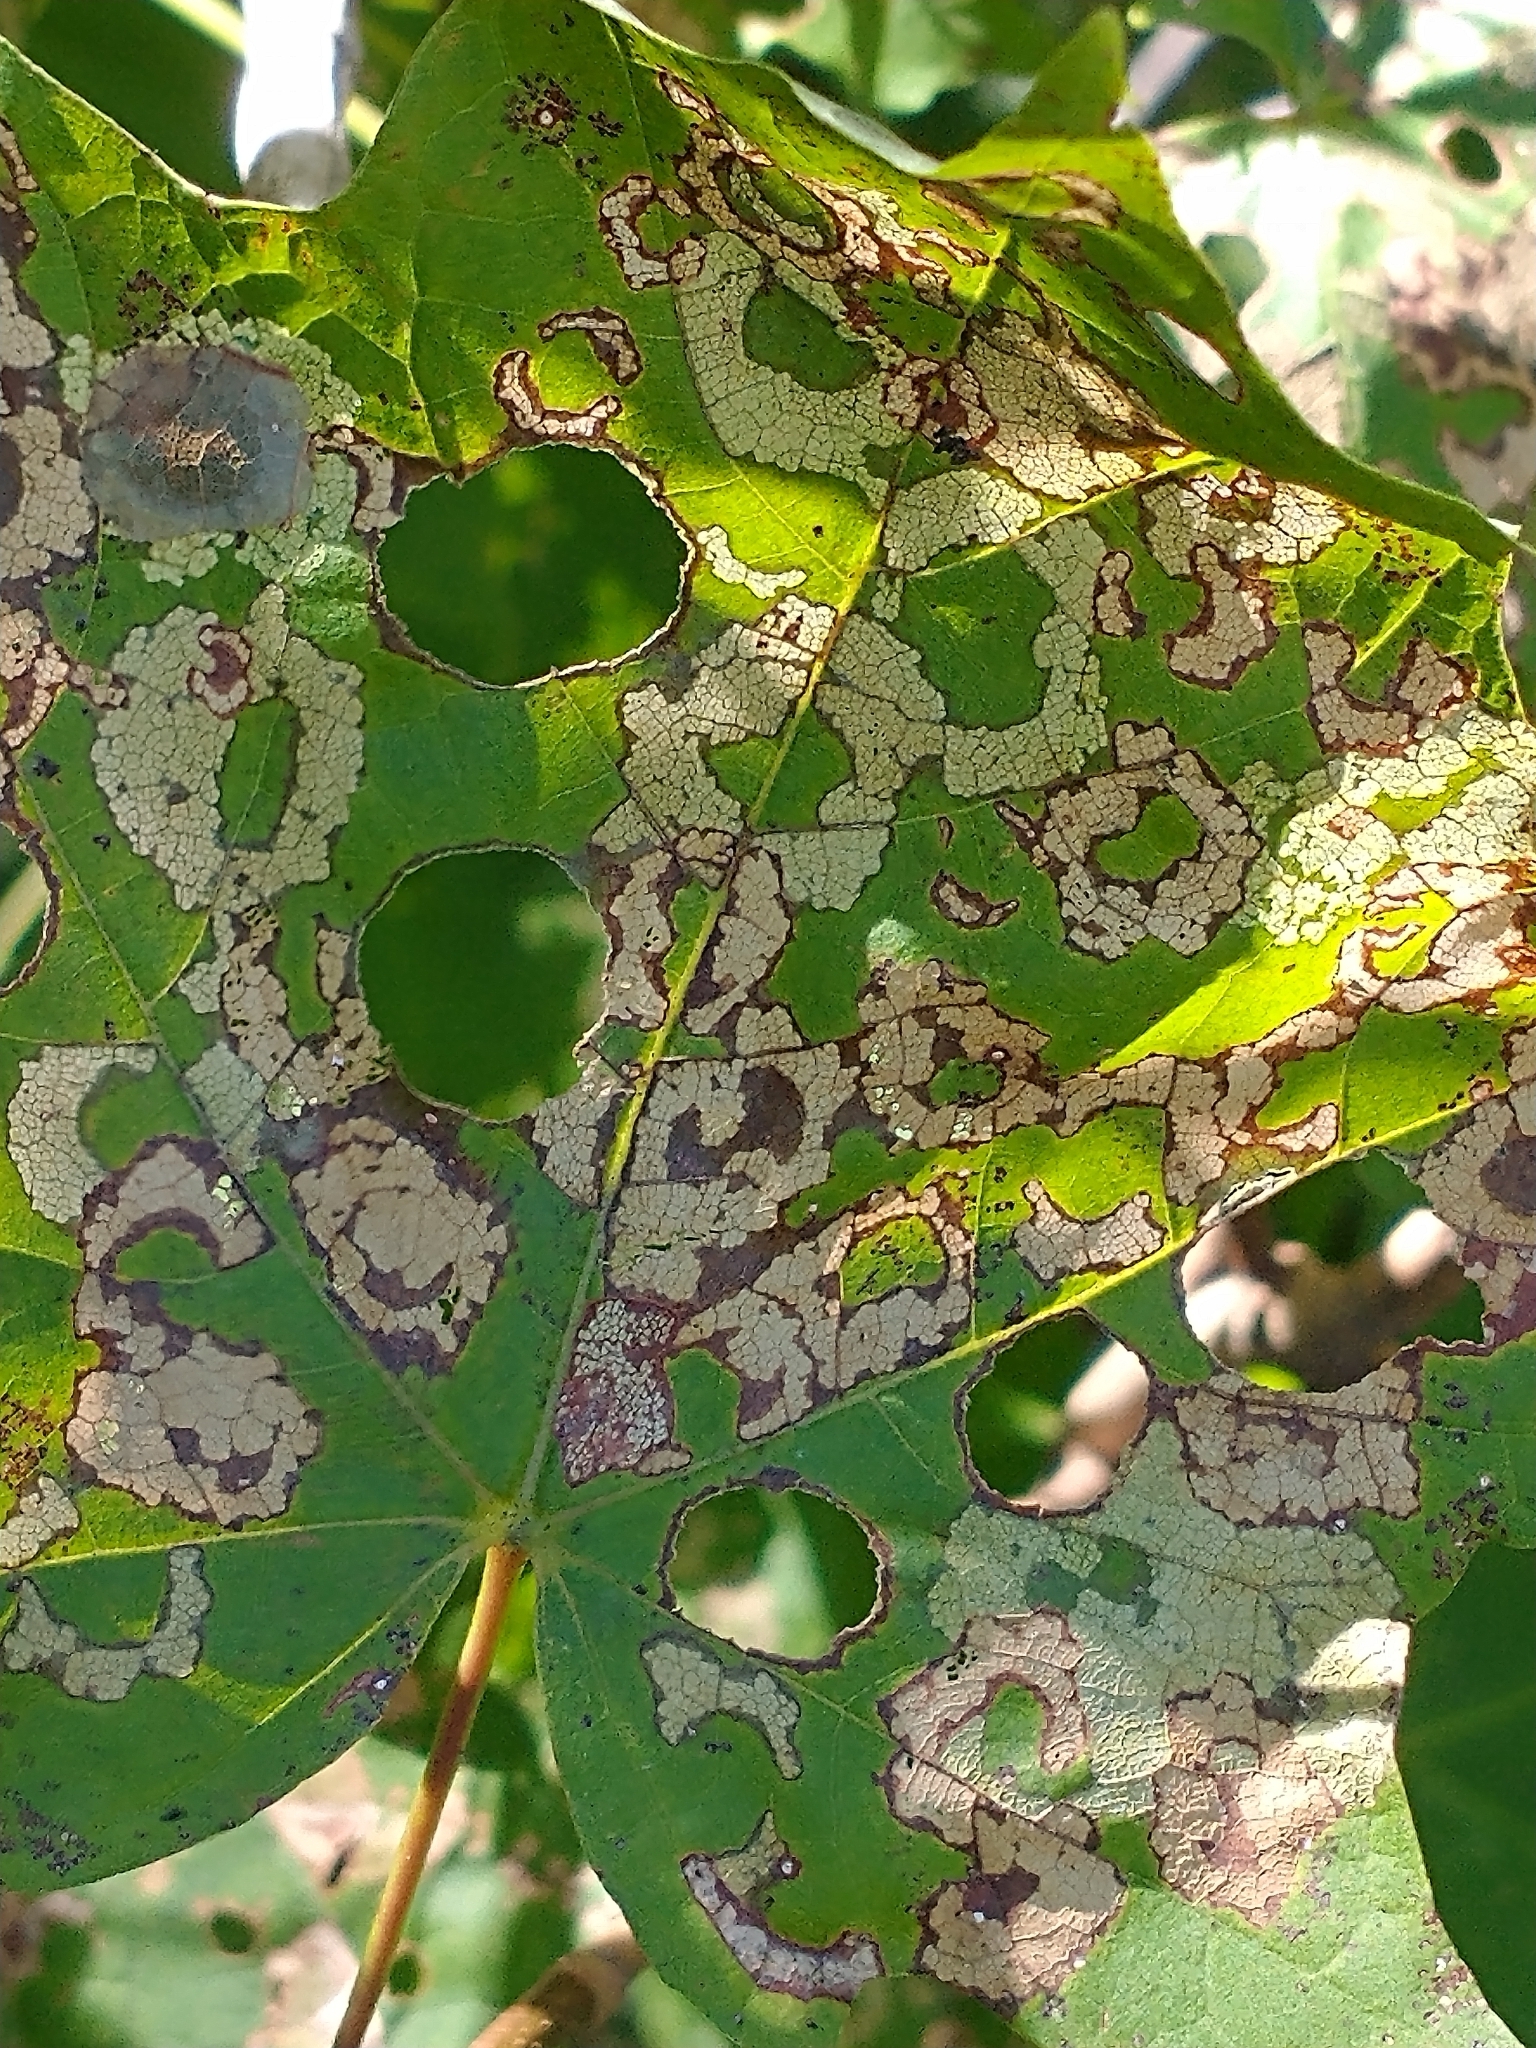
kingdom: Animalia
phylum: Arthropoda
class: Insecta
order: Lepidoptera
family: Incurvariidae
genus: Paraclemensia
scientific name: Paraclemensia acerifoliella
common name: Maple leafcutter
